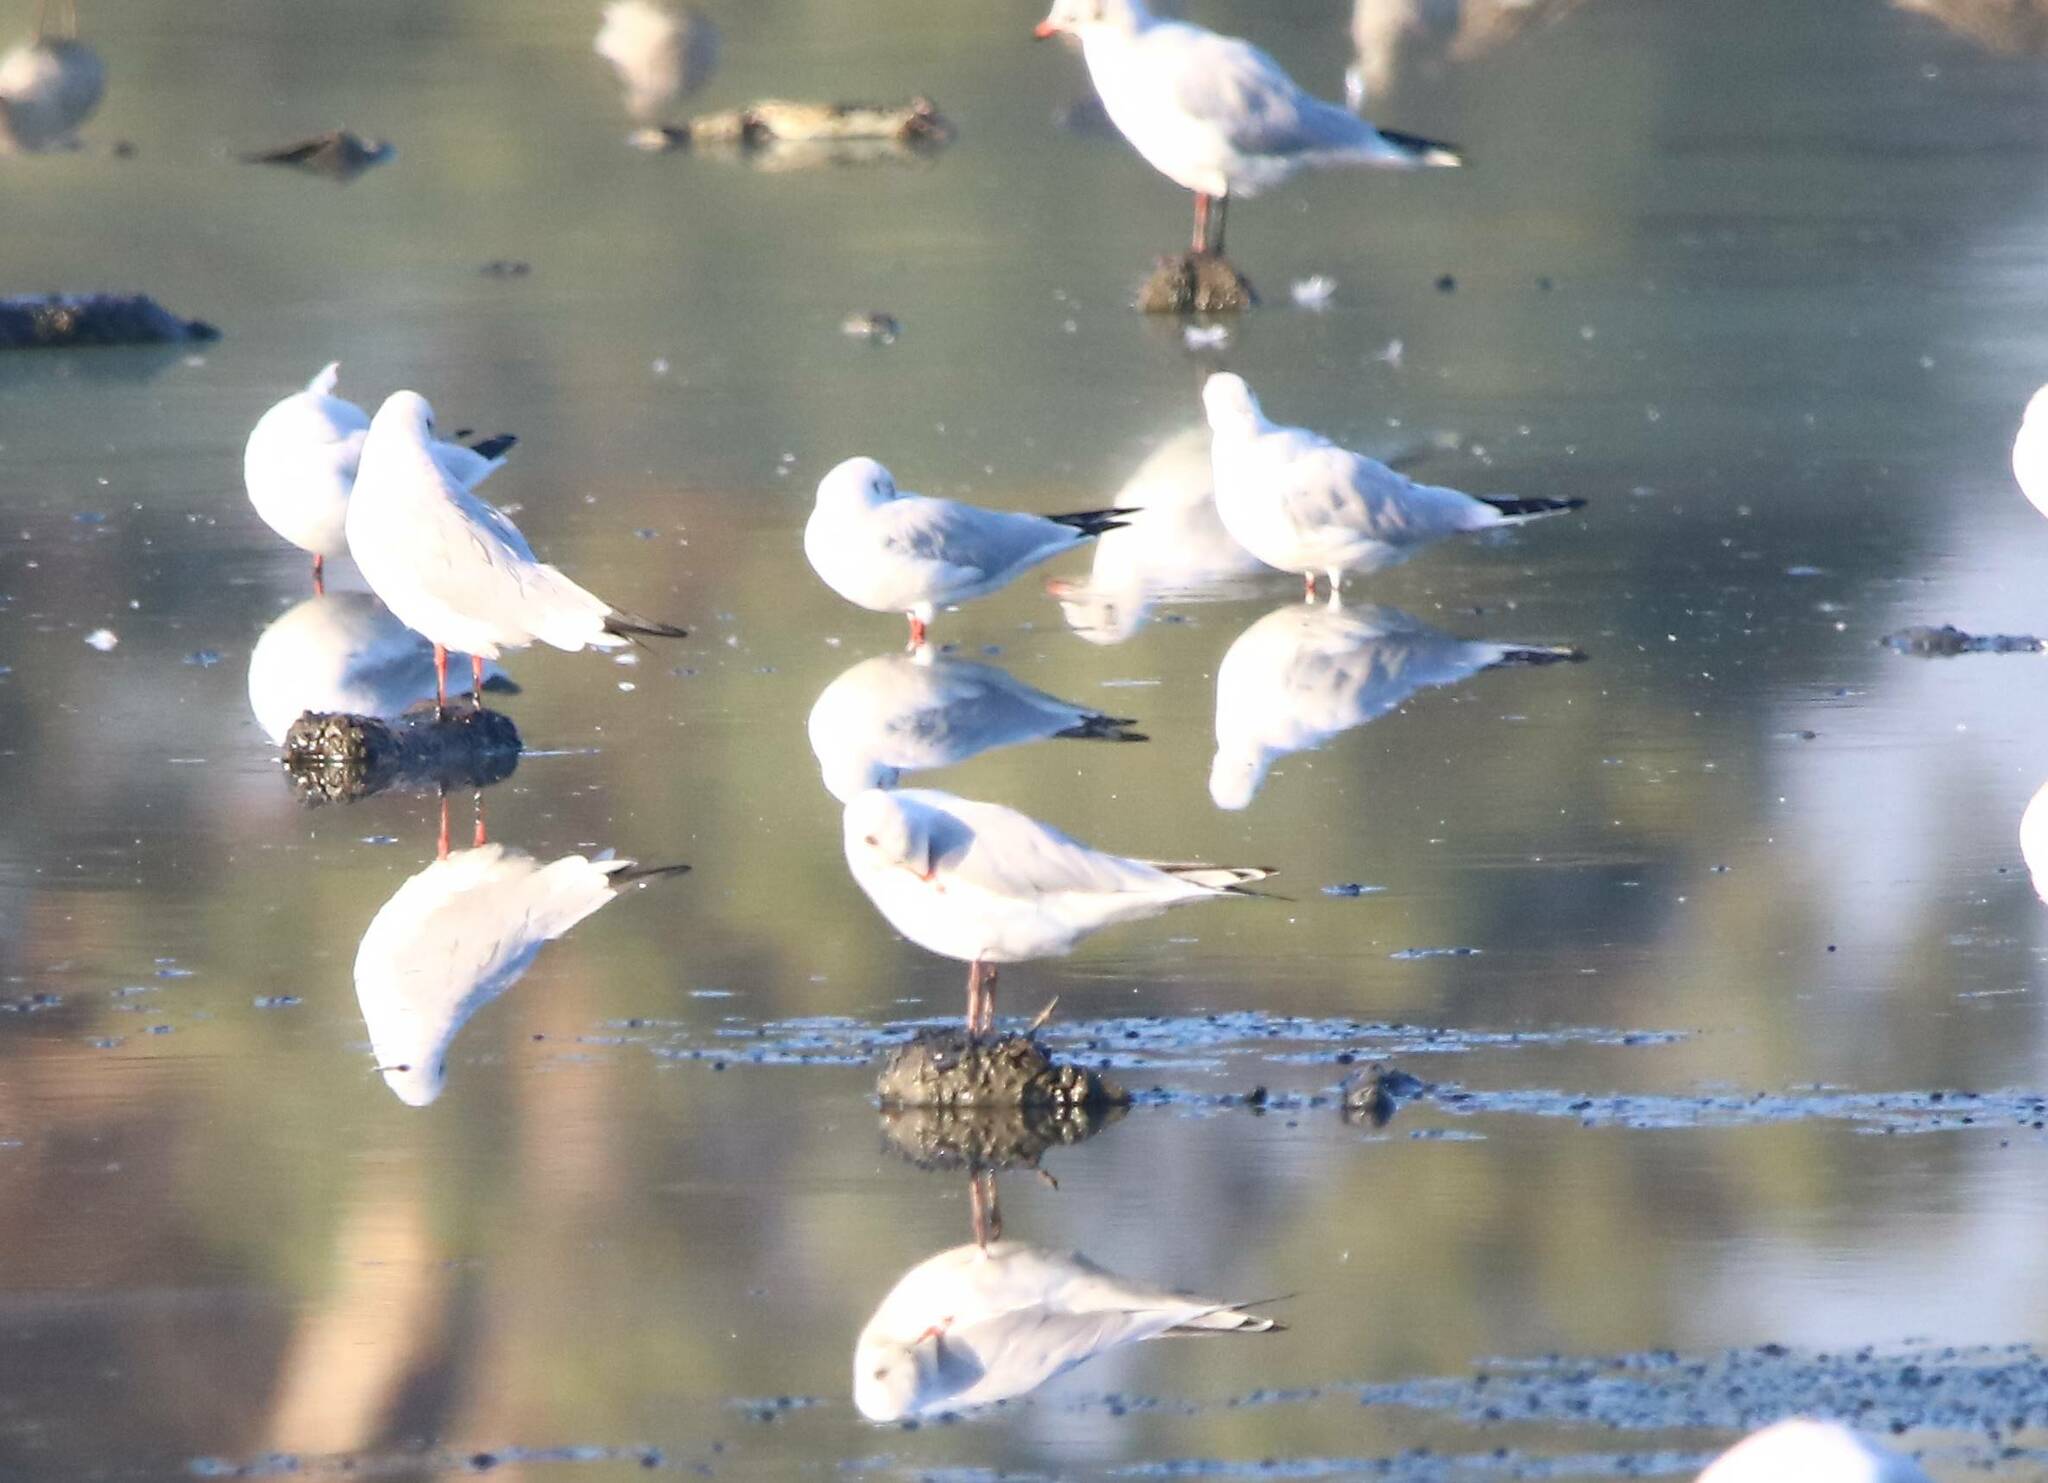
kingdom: Animalia
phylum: Chordata
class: Aves
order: Charadriiformes
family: Laridae
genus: Chroicocephalus
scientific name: Chroicocephalus ridibundus
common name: Black-headed gull
